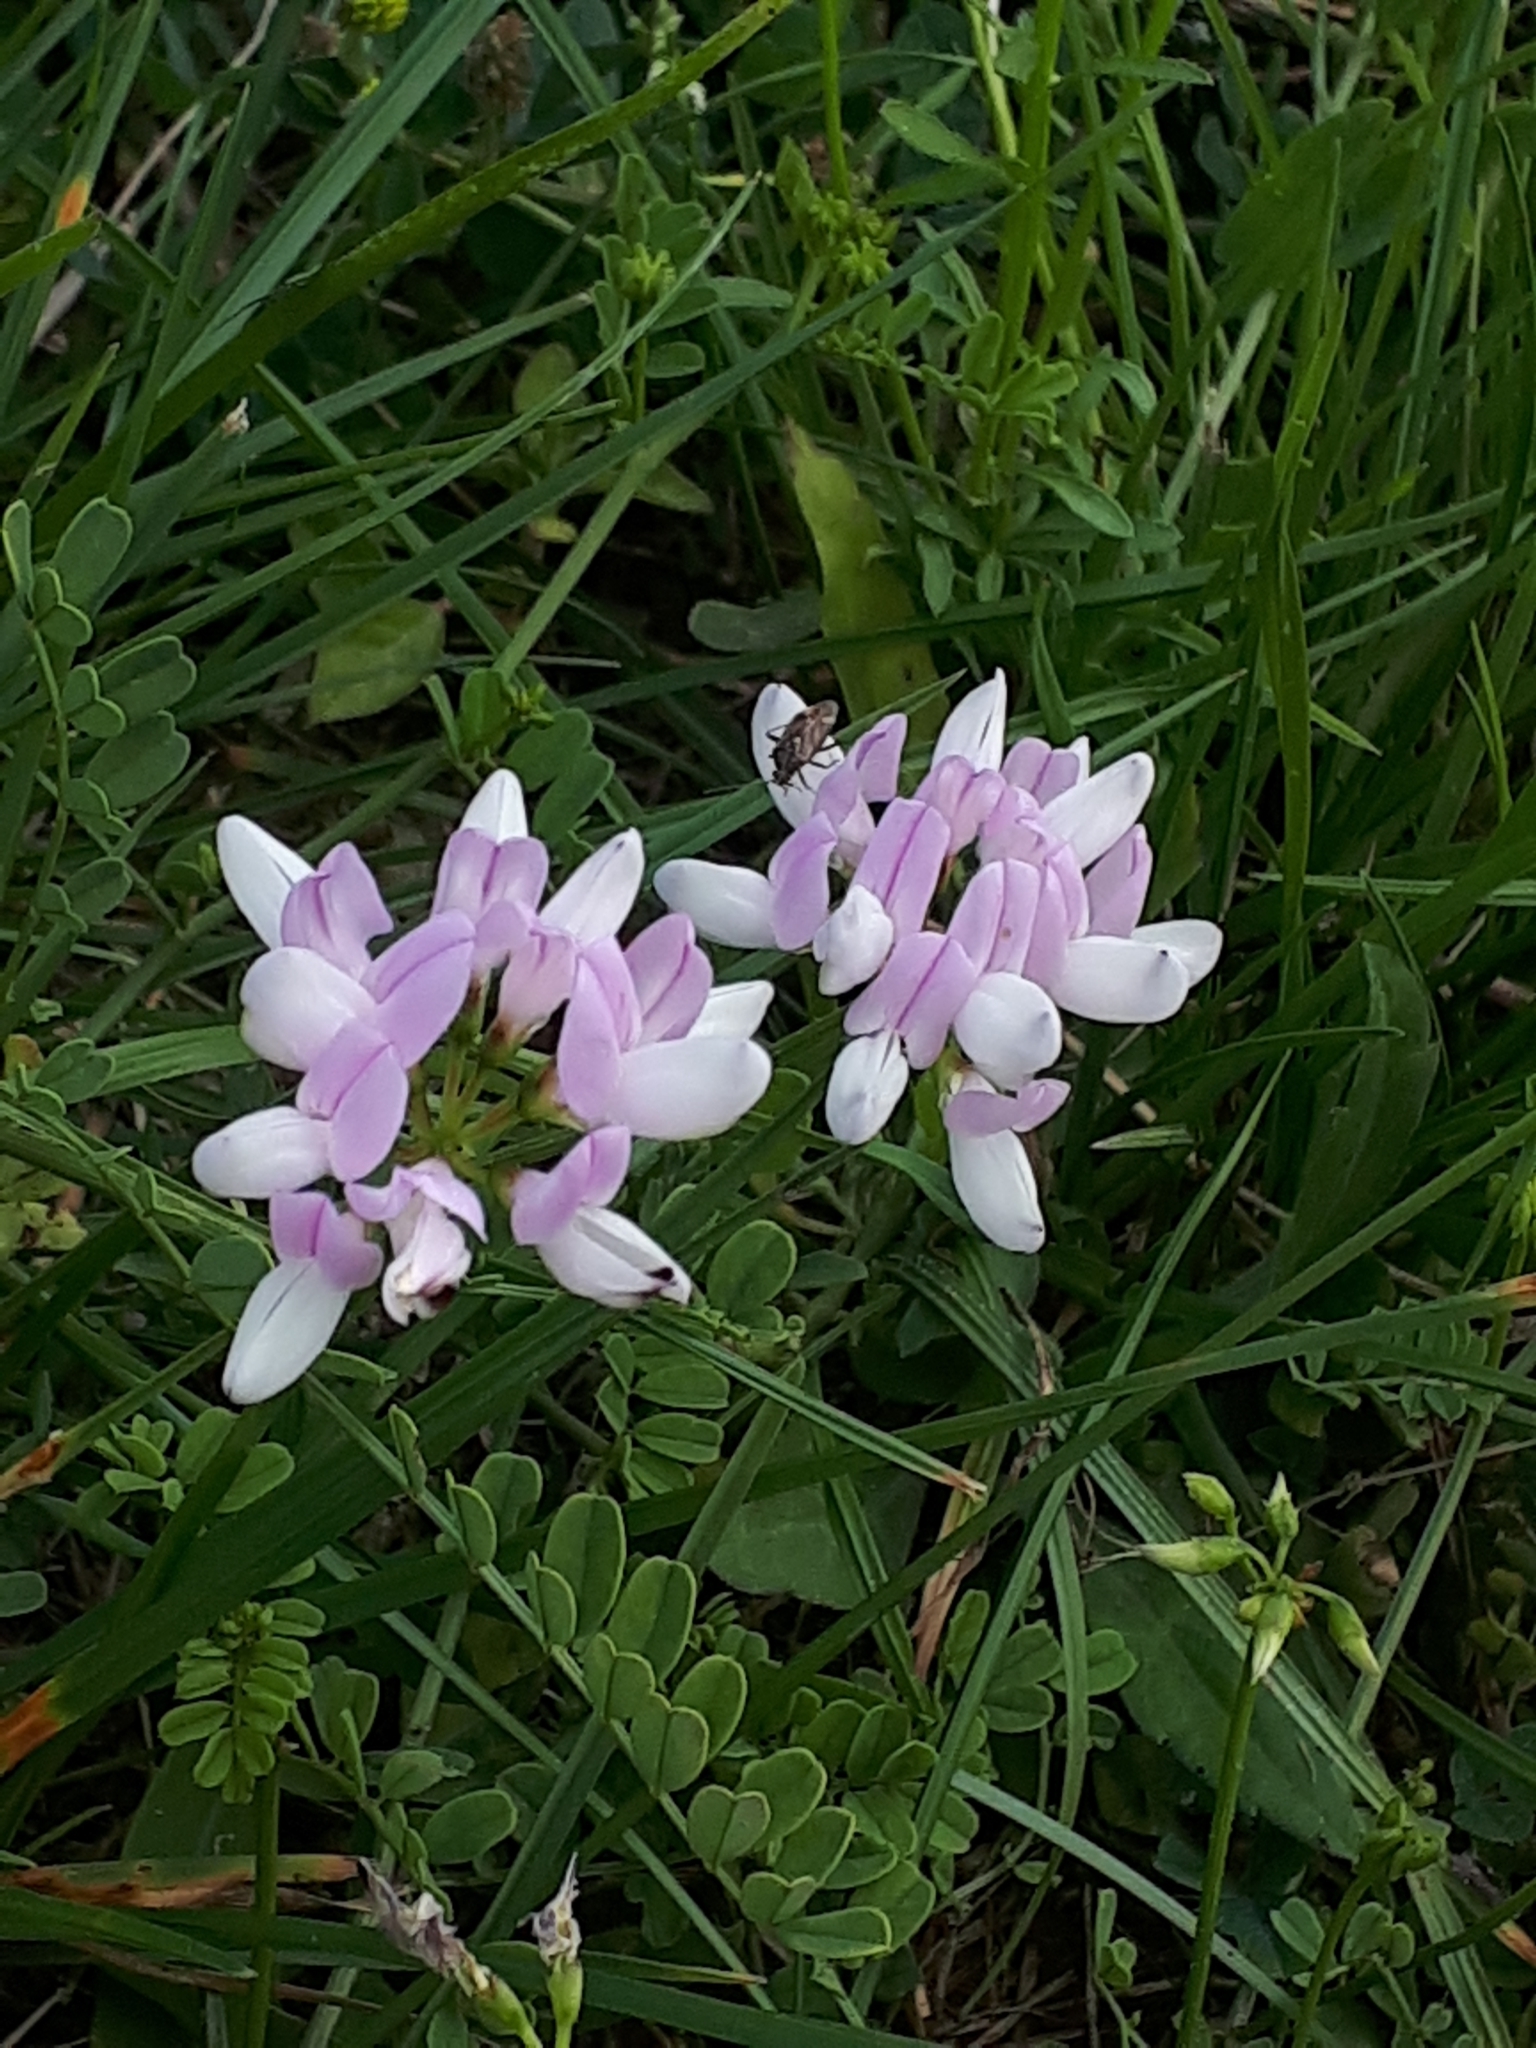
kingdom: Plantae
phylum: Tracheophyta
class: Magnoliopsida
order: Fabales
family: Fabaceae
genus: Coronilla
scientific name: Coronilla varia
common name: Crownvetch
